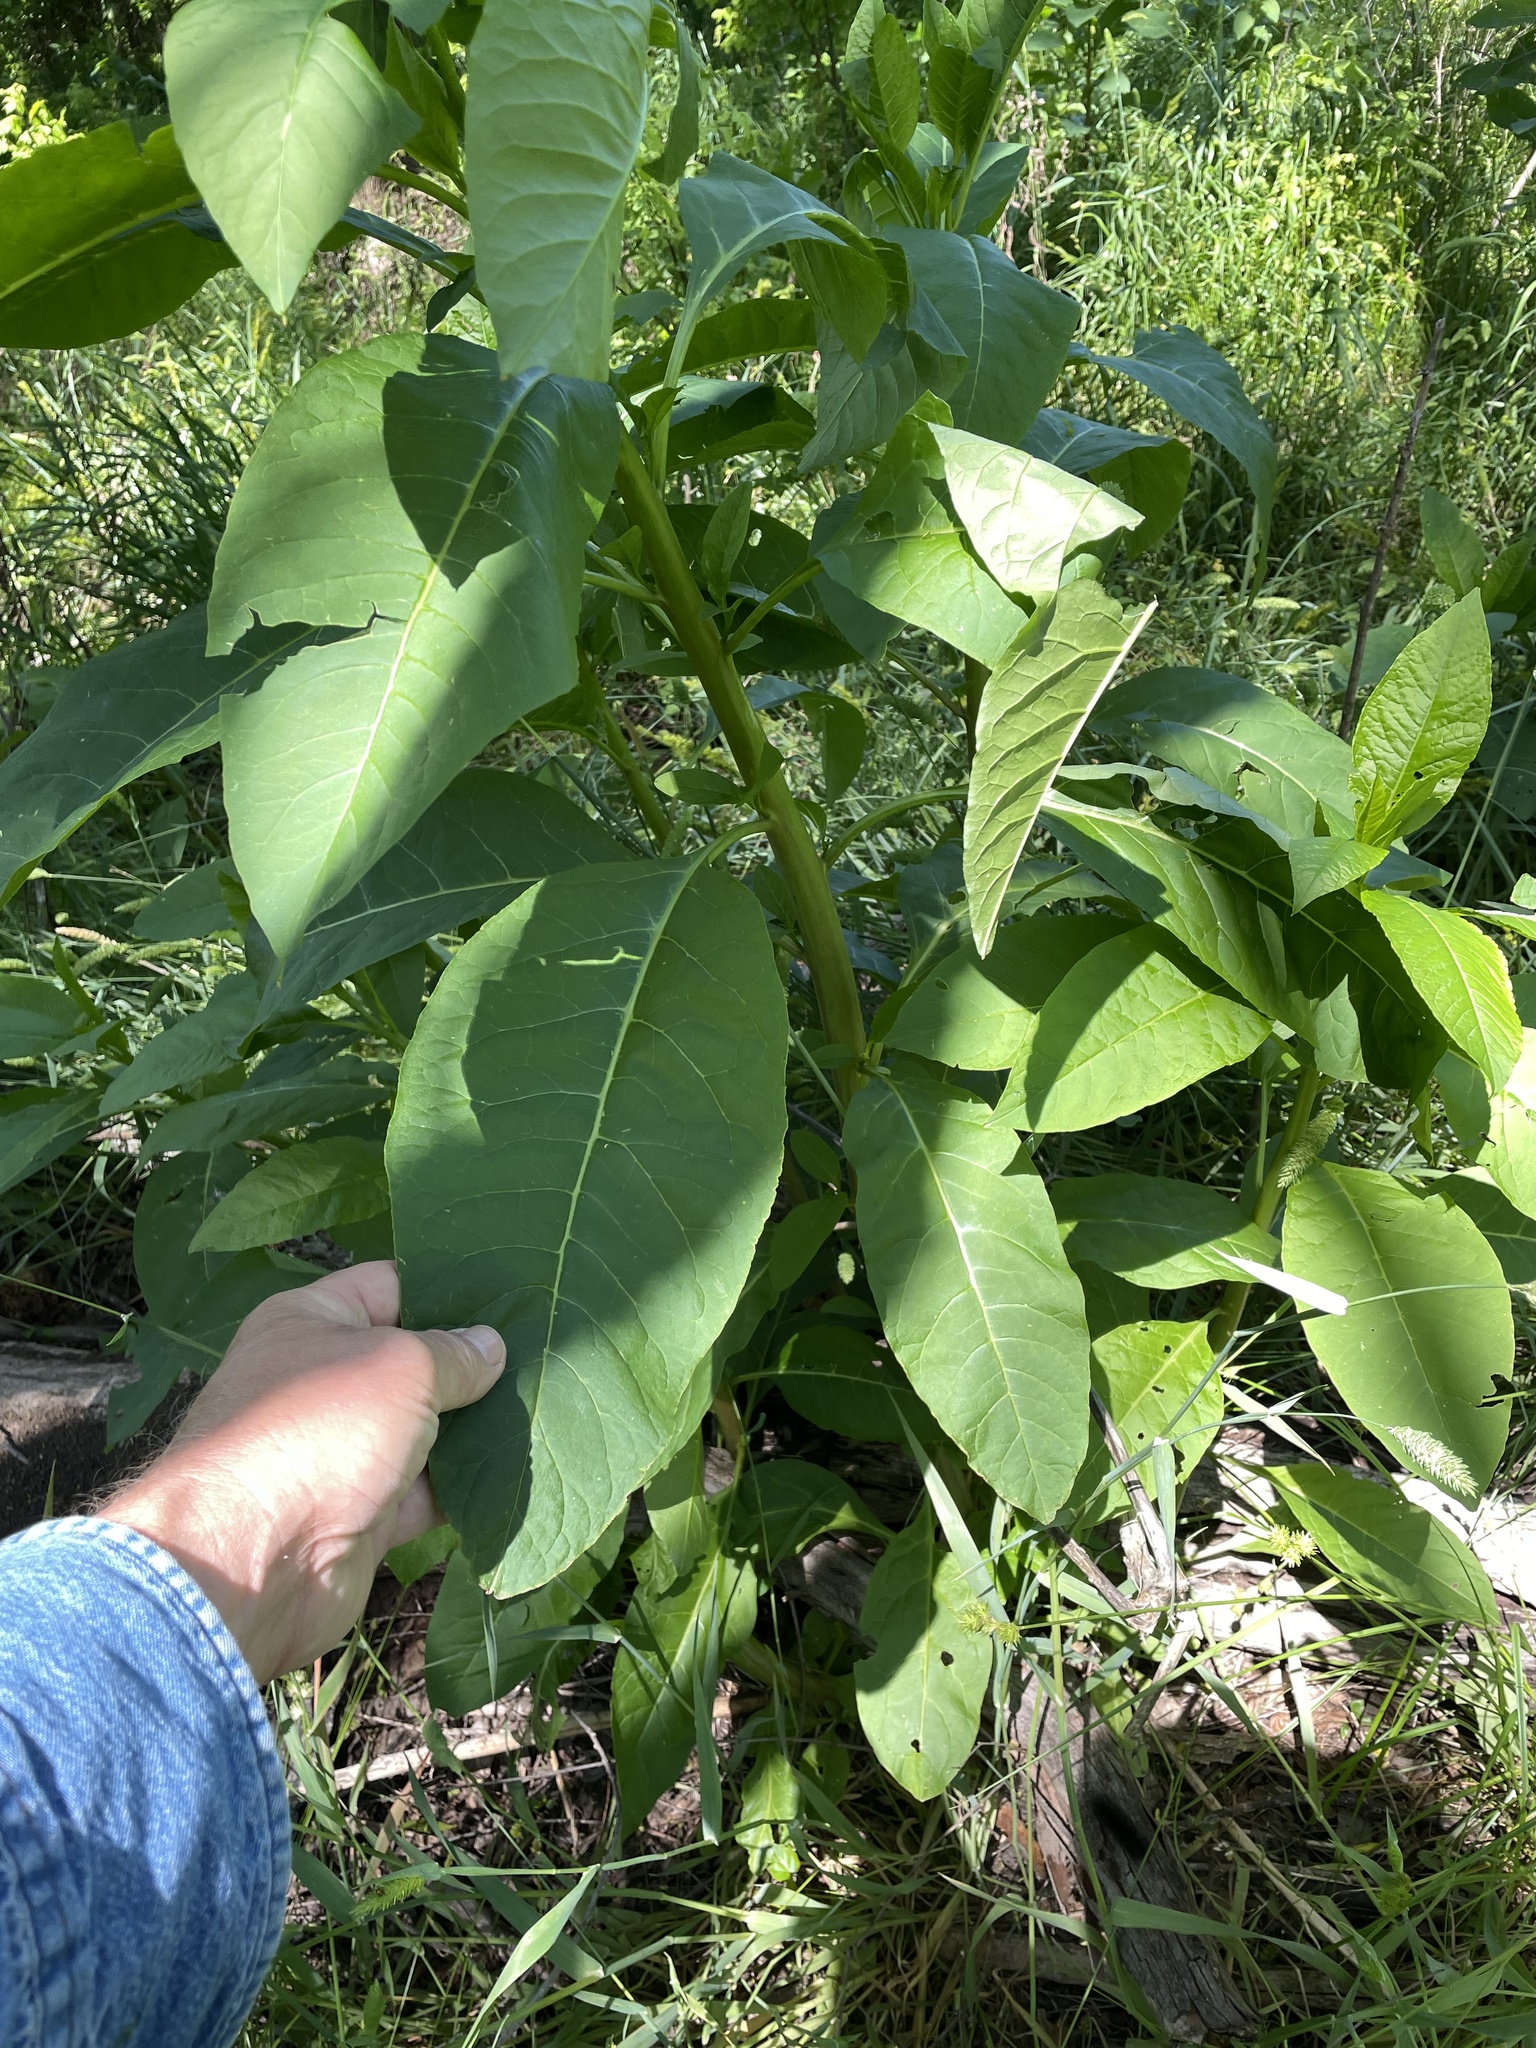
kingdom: Plantae
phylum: Tracheophyta
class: Magnoliopsida
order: Caryophyllales
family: Phytolaccaceae
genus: Phytolacca
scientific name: Phytolacca americana
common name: American pokeweed
